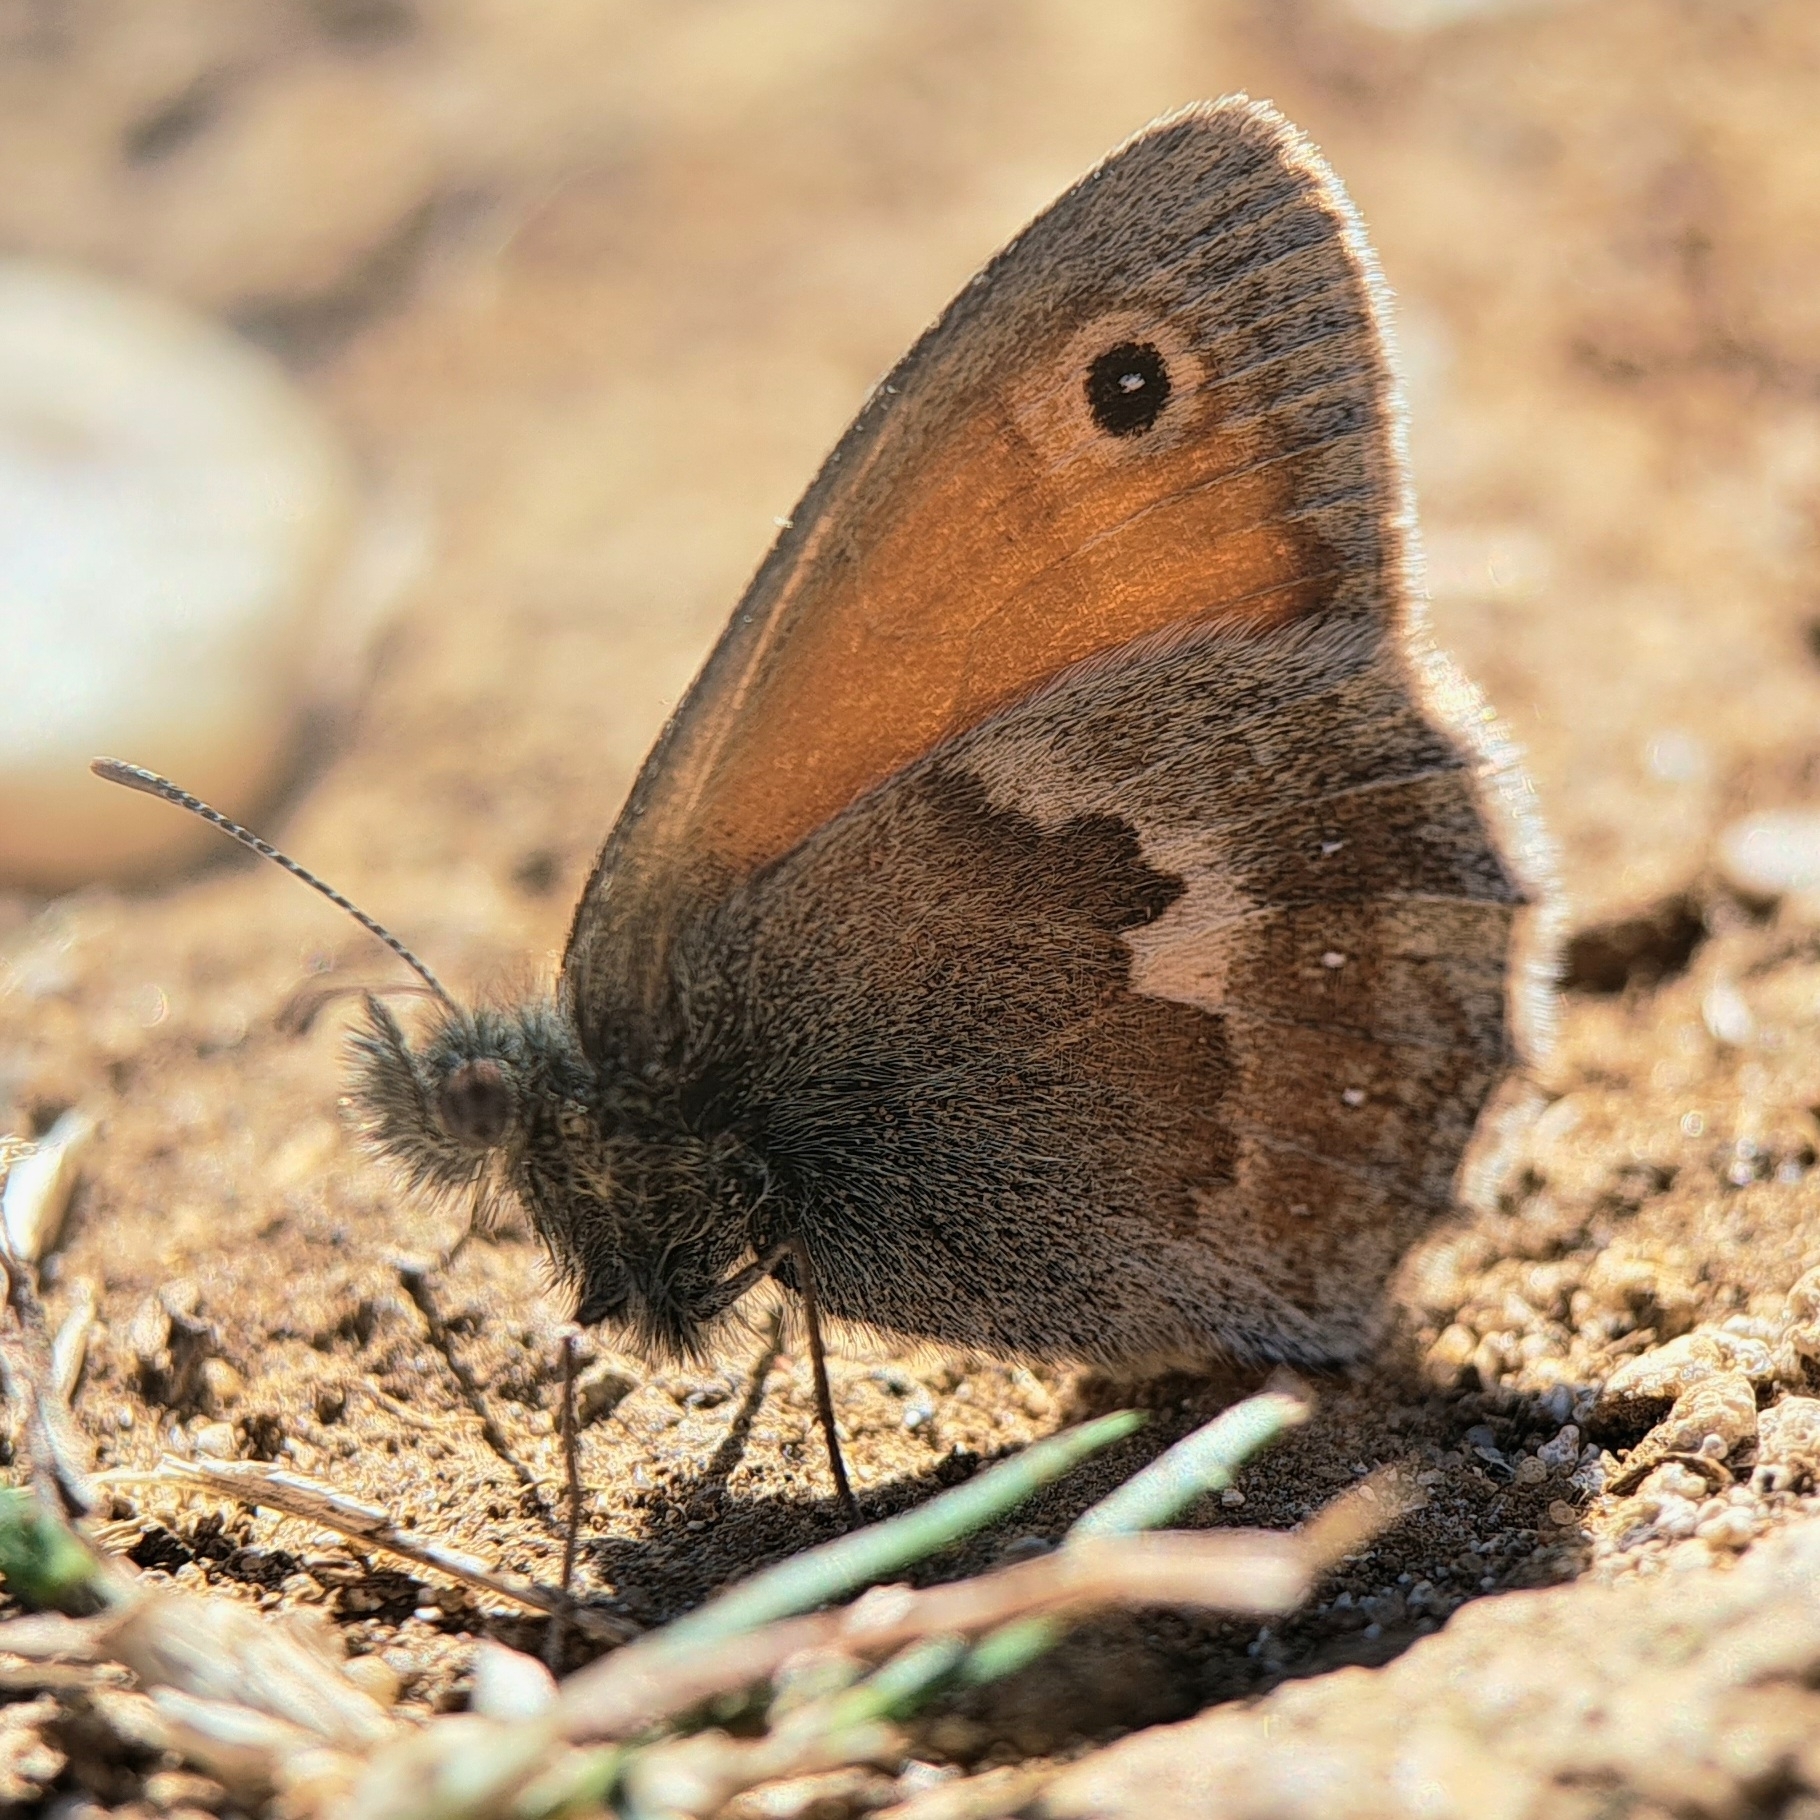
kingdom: Animalia
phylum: Arthropoda
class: Insecta
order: Lepidoptera
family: Nymphalidae
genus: Coenonympha
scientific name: Coenonympha pamphilus
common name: Small heath
